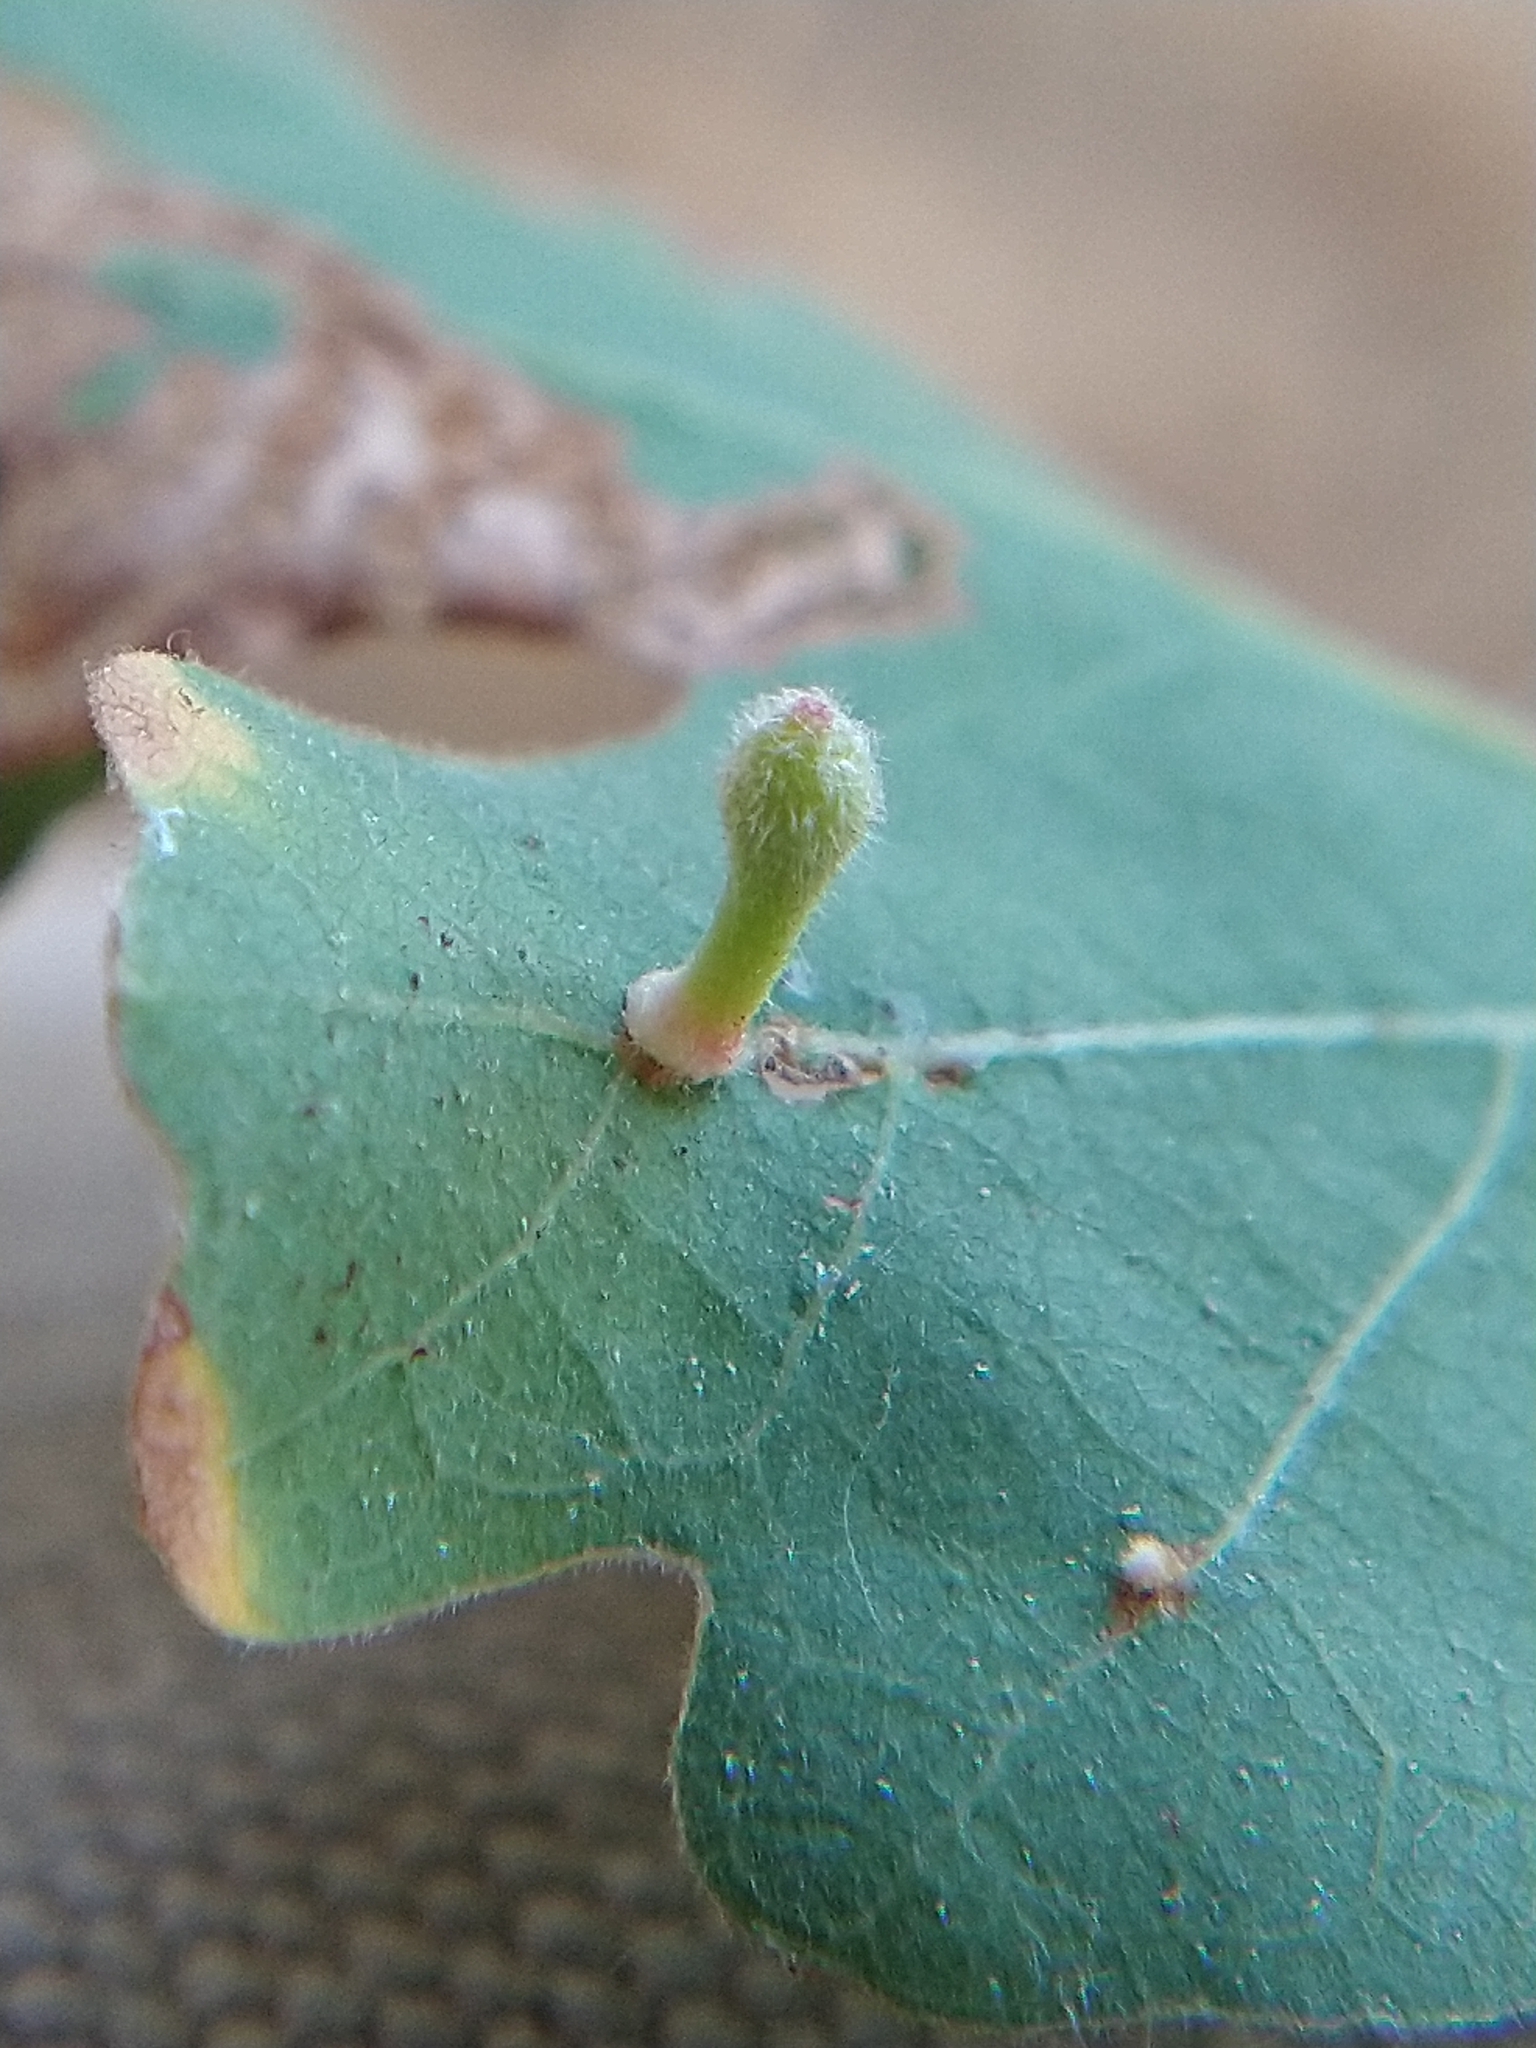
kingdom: Animalia
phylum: Arthropoda
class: Insecta
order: Hymenoptera
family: Cynipidae
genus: Atrusca
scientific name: Atrusca
